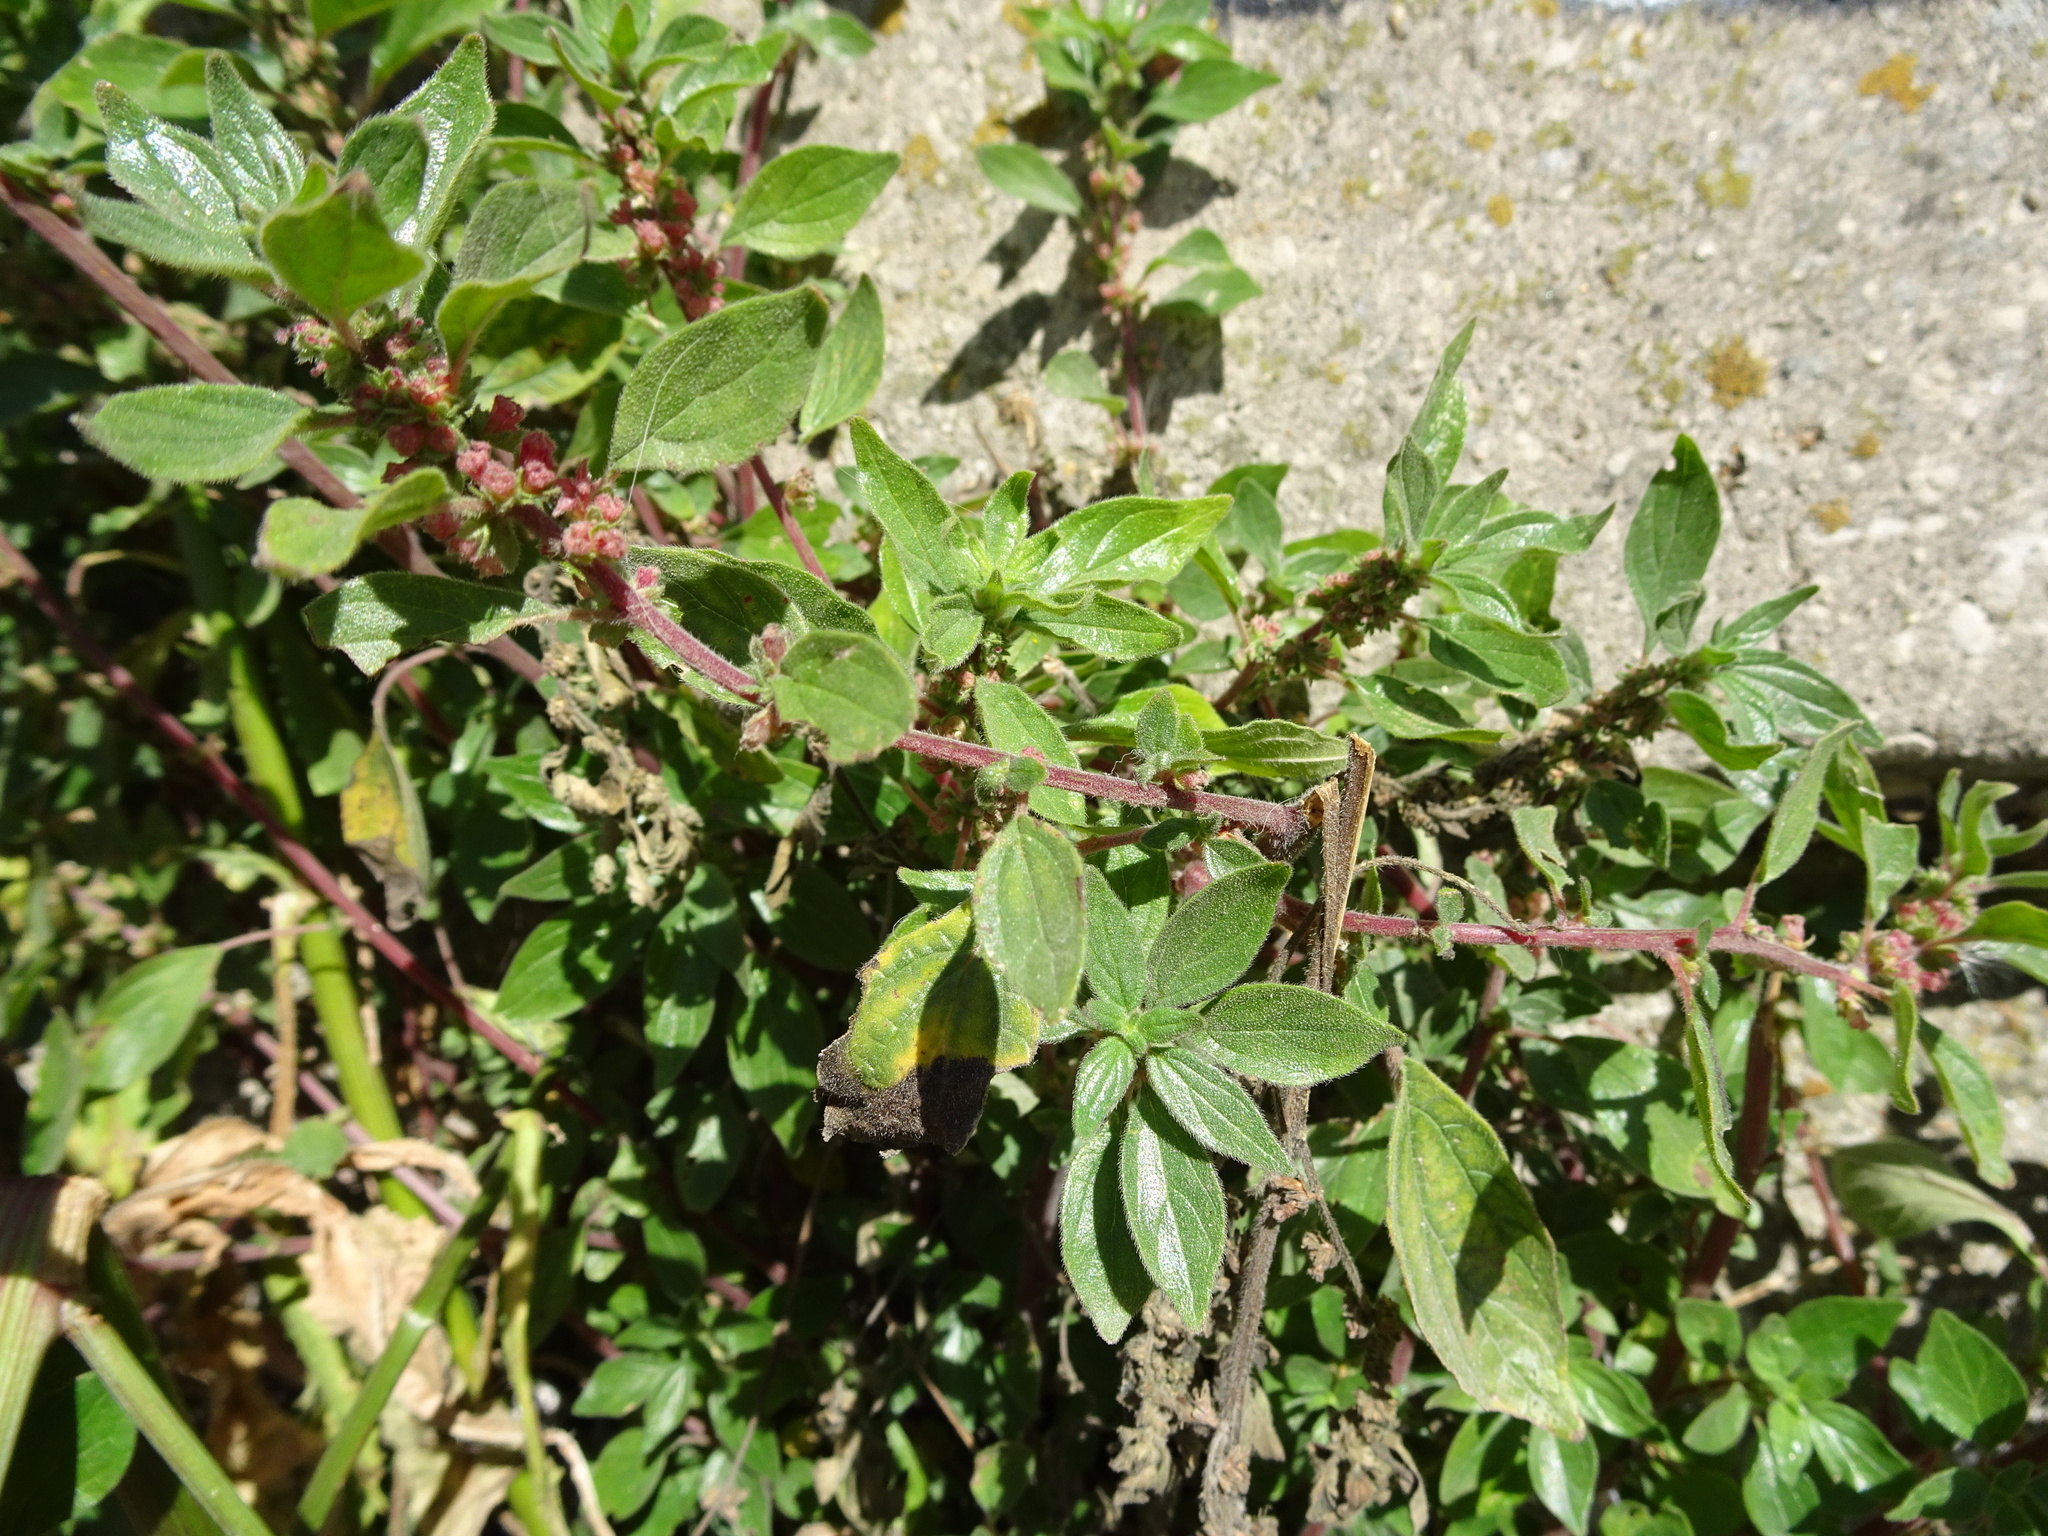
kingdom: Plantae
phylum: Tracheophyta
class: Magnoliopsida
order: Rosales
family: Urticaceae
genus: Parietaria
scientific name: Parietaria judaica
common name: Pellitory-of-the-wall
